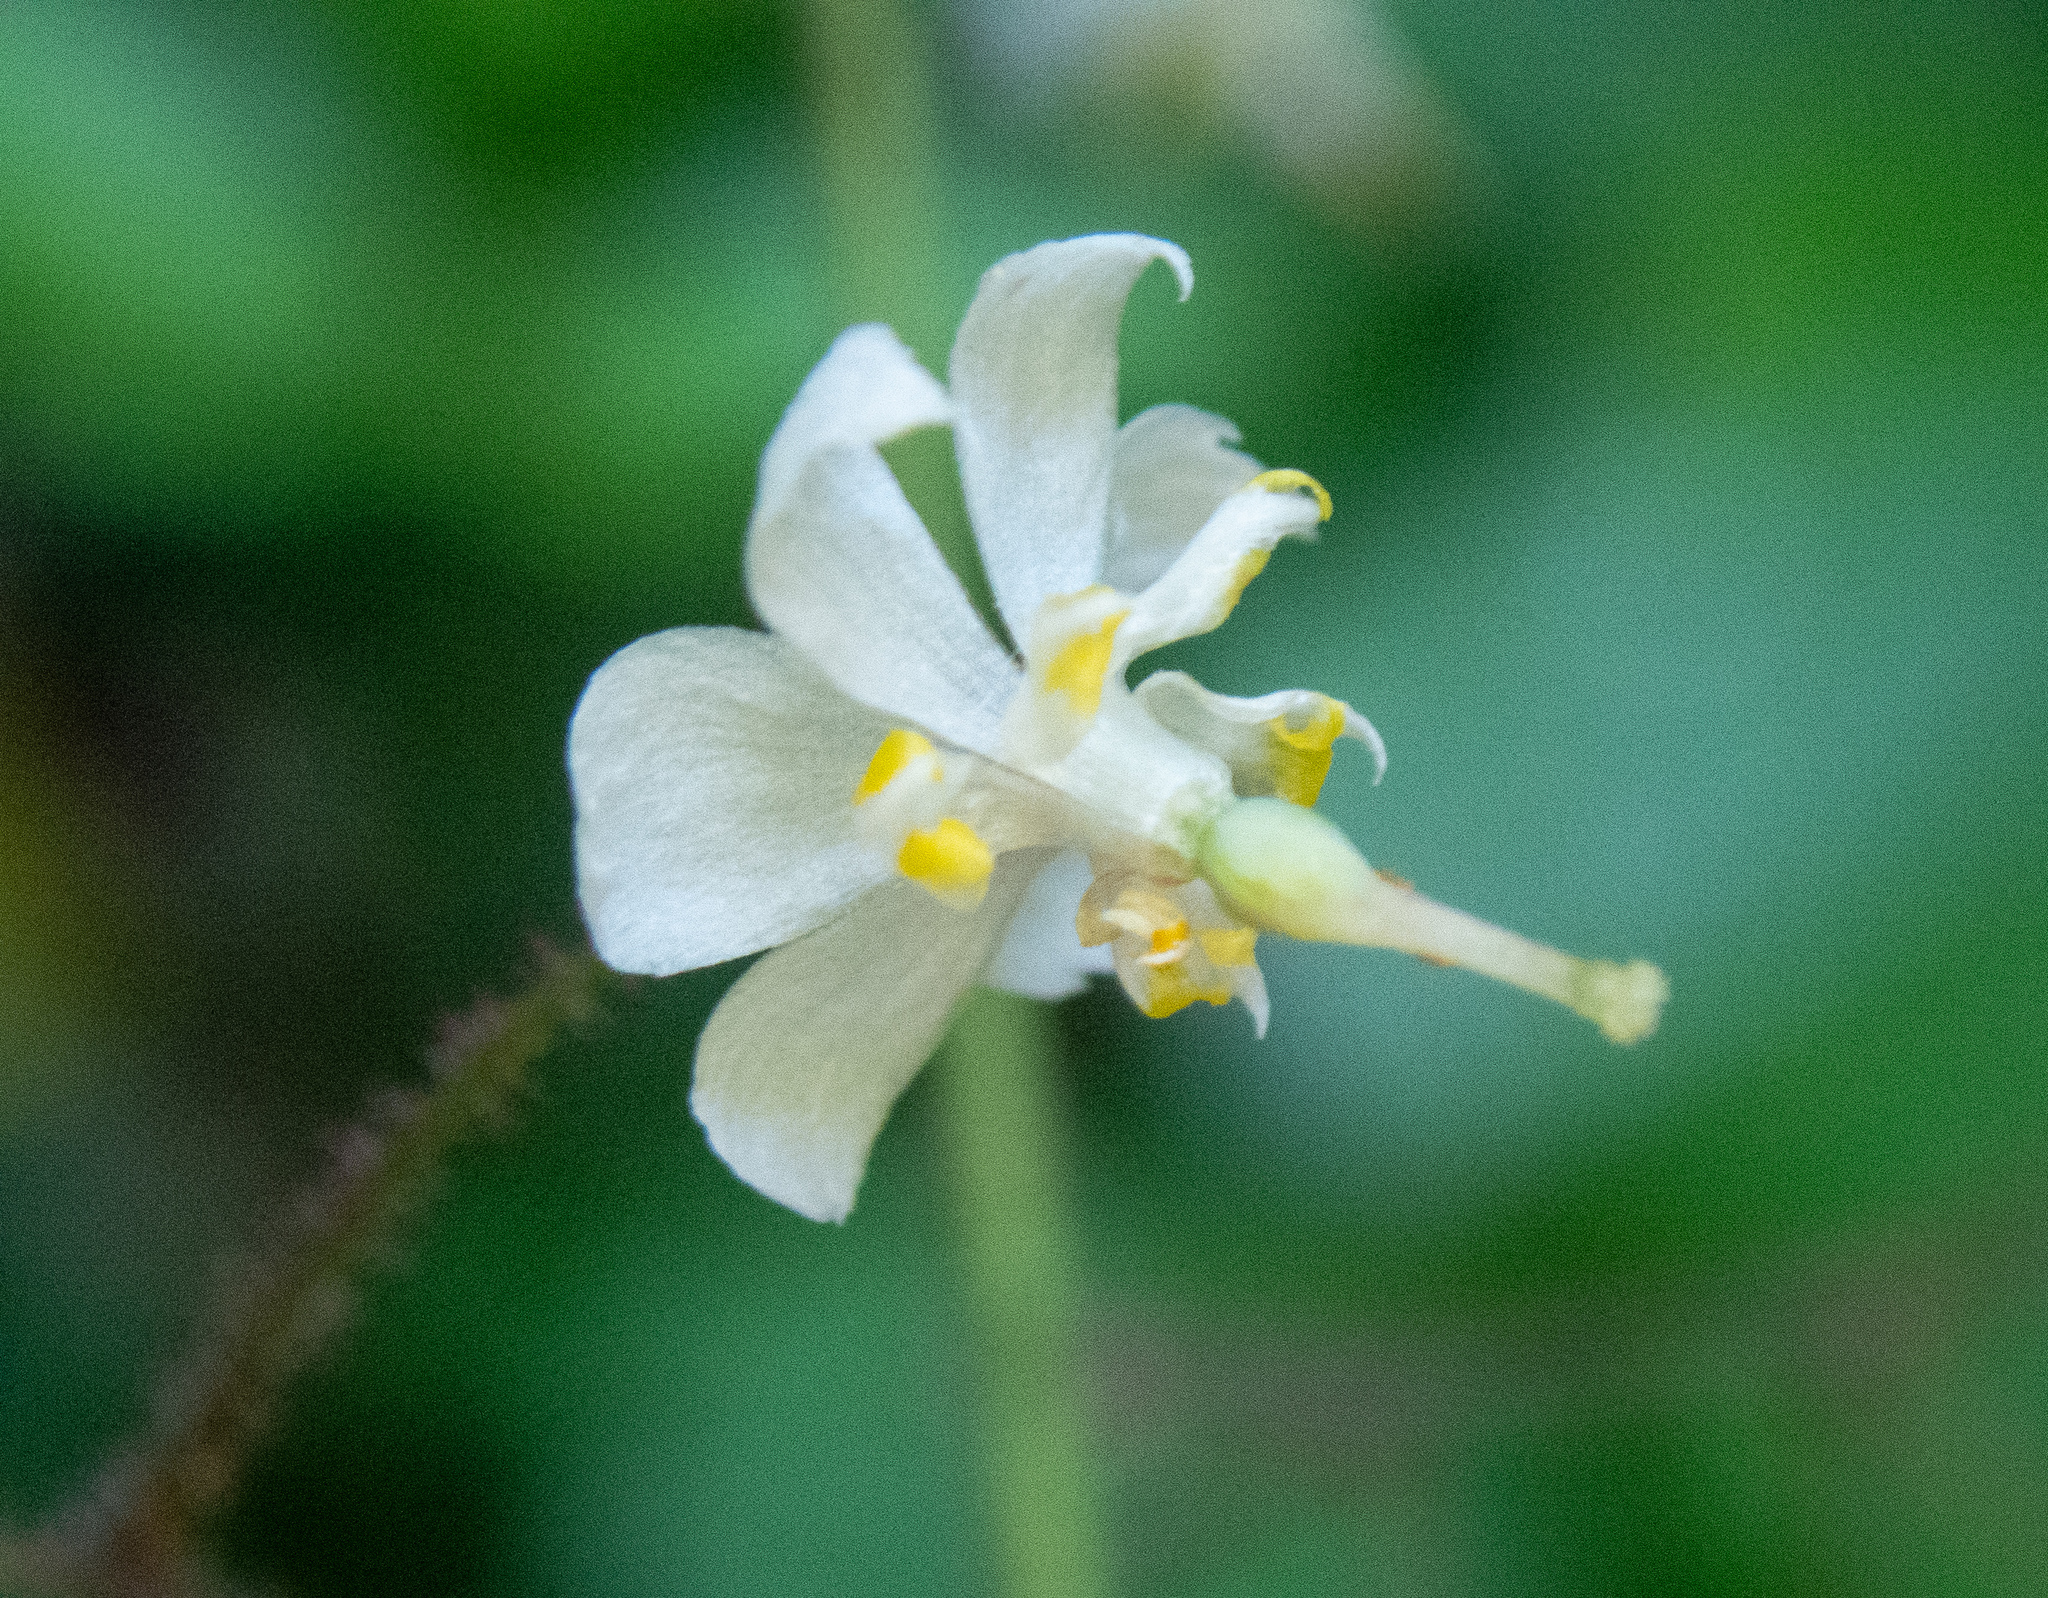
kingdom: Plantae
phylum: Tracheophyta
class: Magnoliopsida
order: Ranunculales
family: Berberidaceae
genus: Vancouveria
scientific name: Vancouveria planipetala
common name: Redwood-ivy
